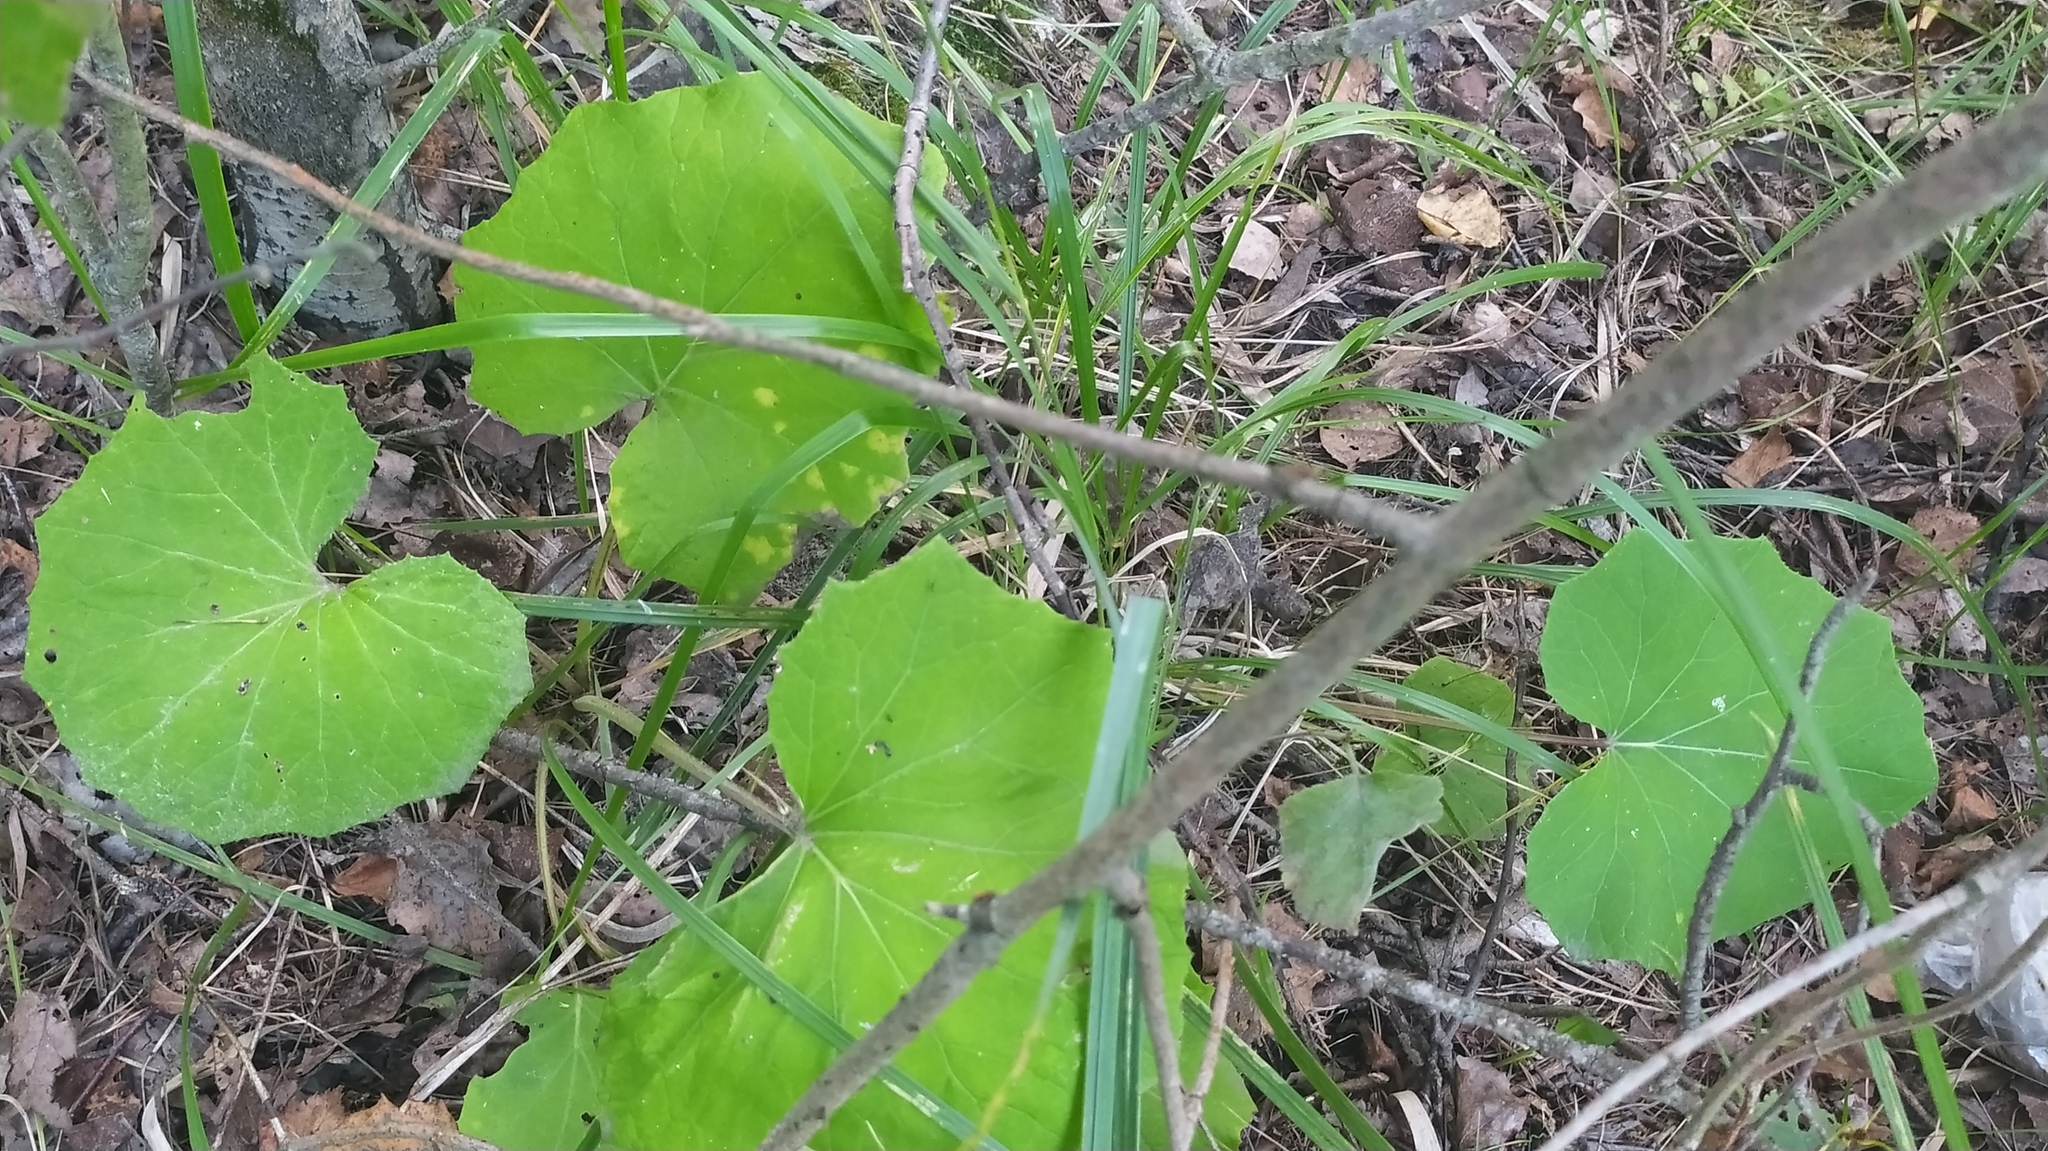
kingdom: Plantae
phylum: Tracheophyta
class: Magnoliopsida
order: Asterales
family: Asteraceae
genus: Tussilago
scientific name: Tussilago farfara
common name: Coltsfoot
